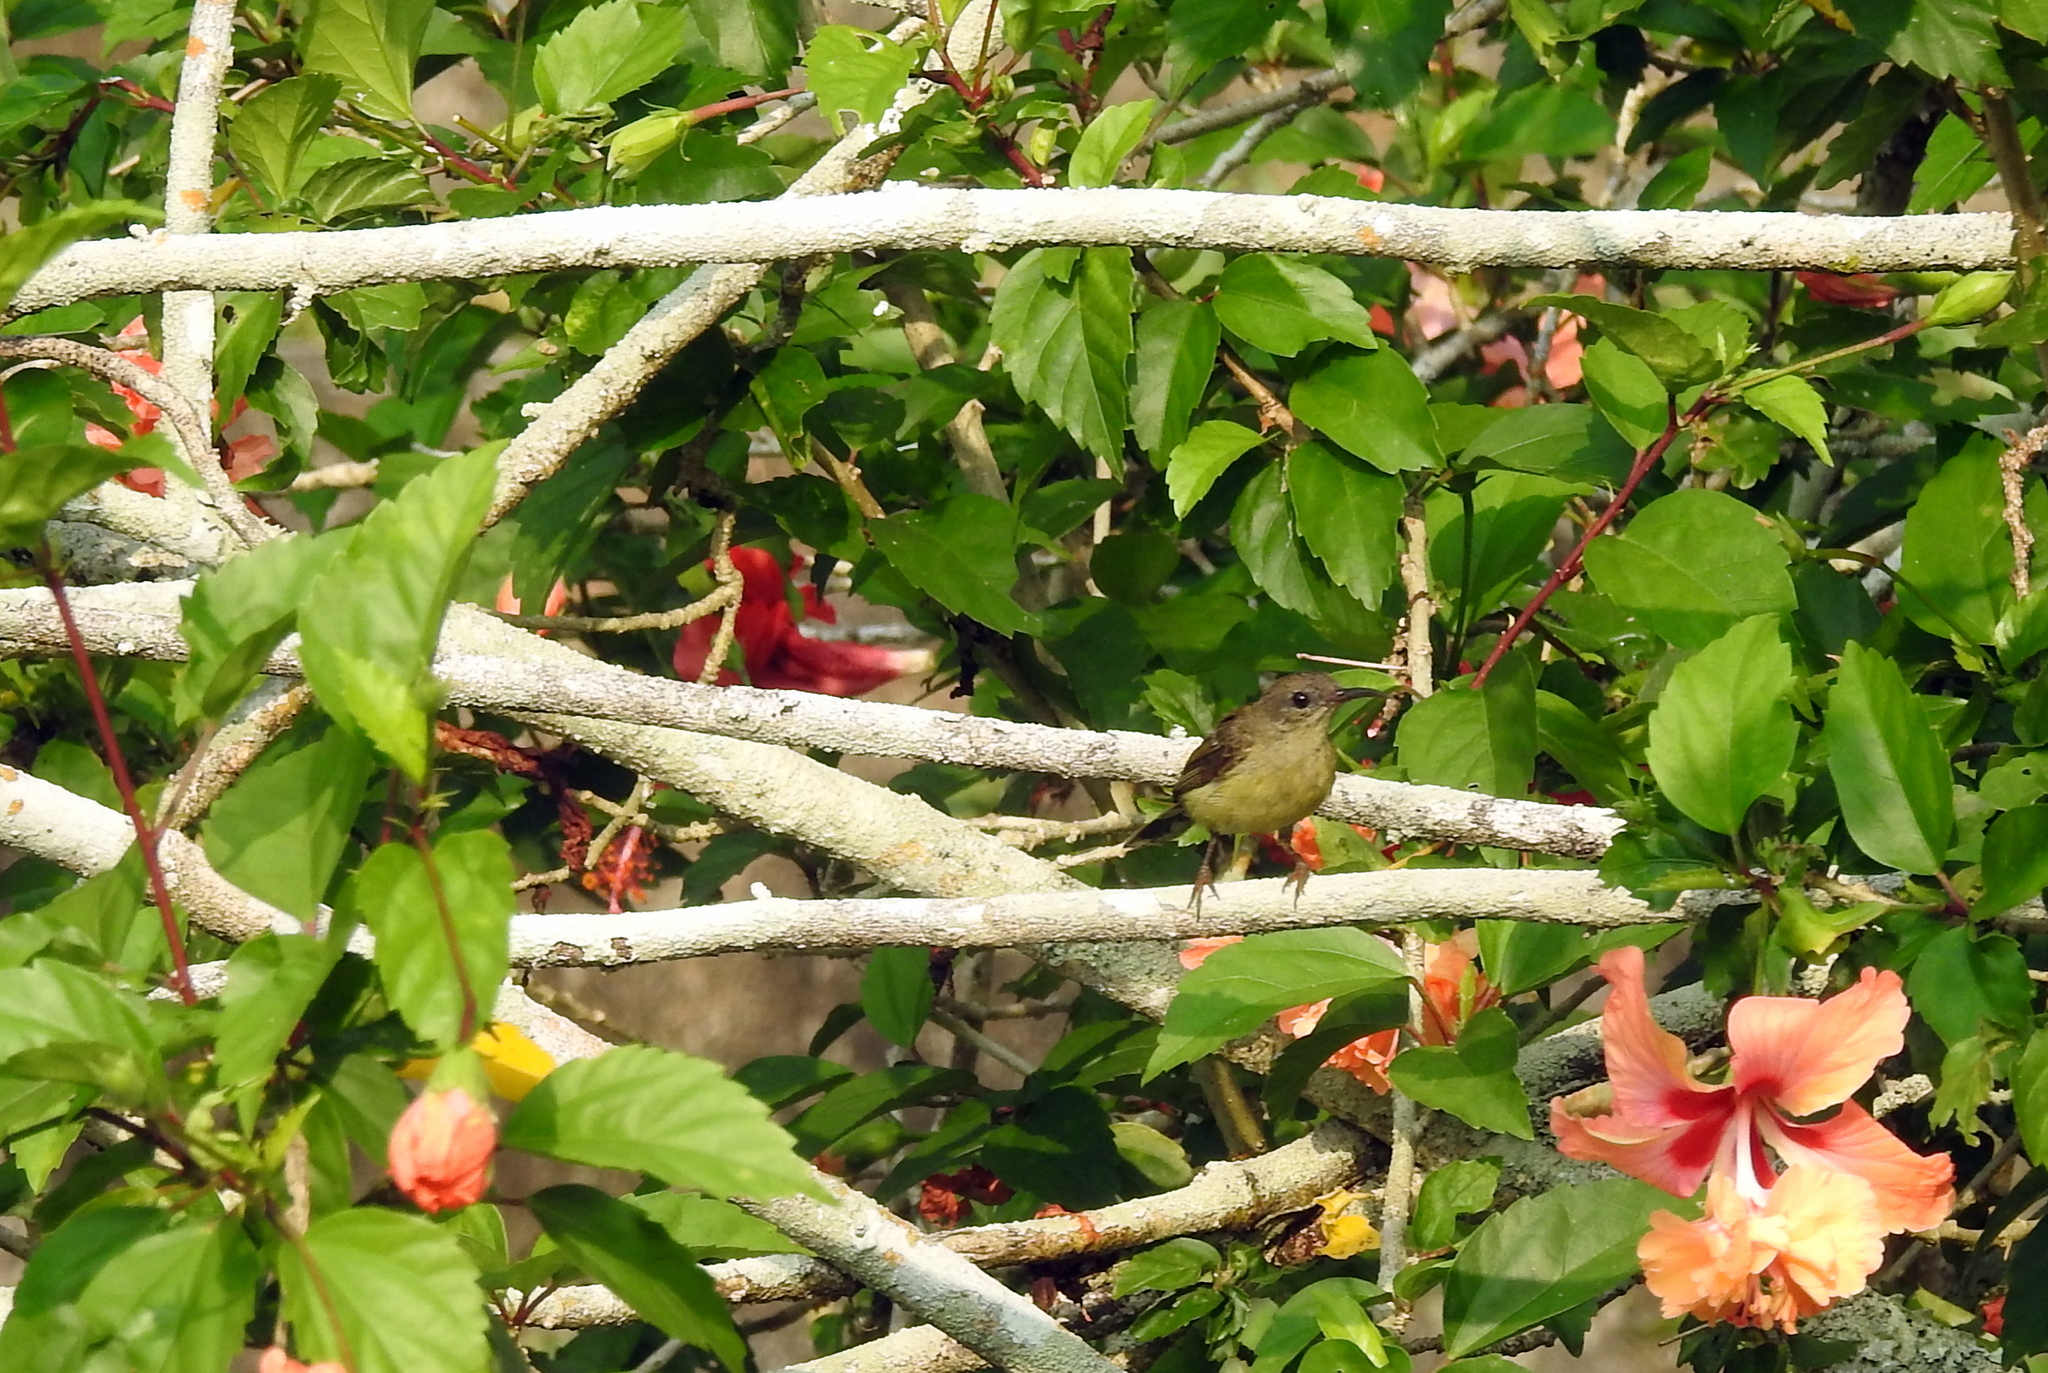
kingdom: Animalia
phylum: Chordata
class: Aves
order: Passeriformes
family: Nectariniidae
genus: Aethopyga
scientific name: Aethopyga siparaja
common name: Crimson sunbird
